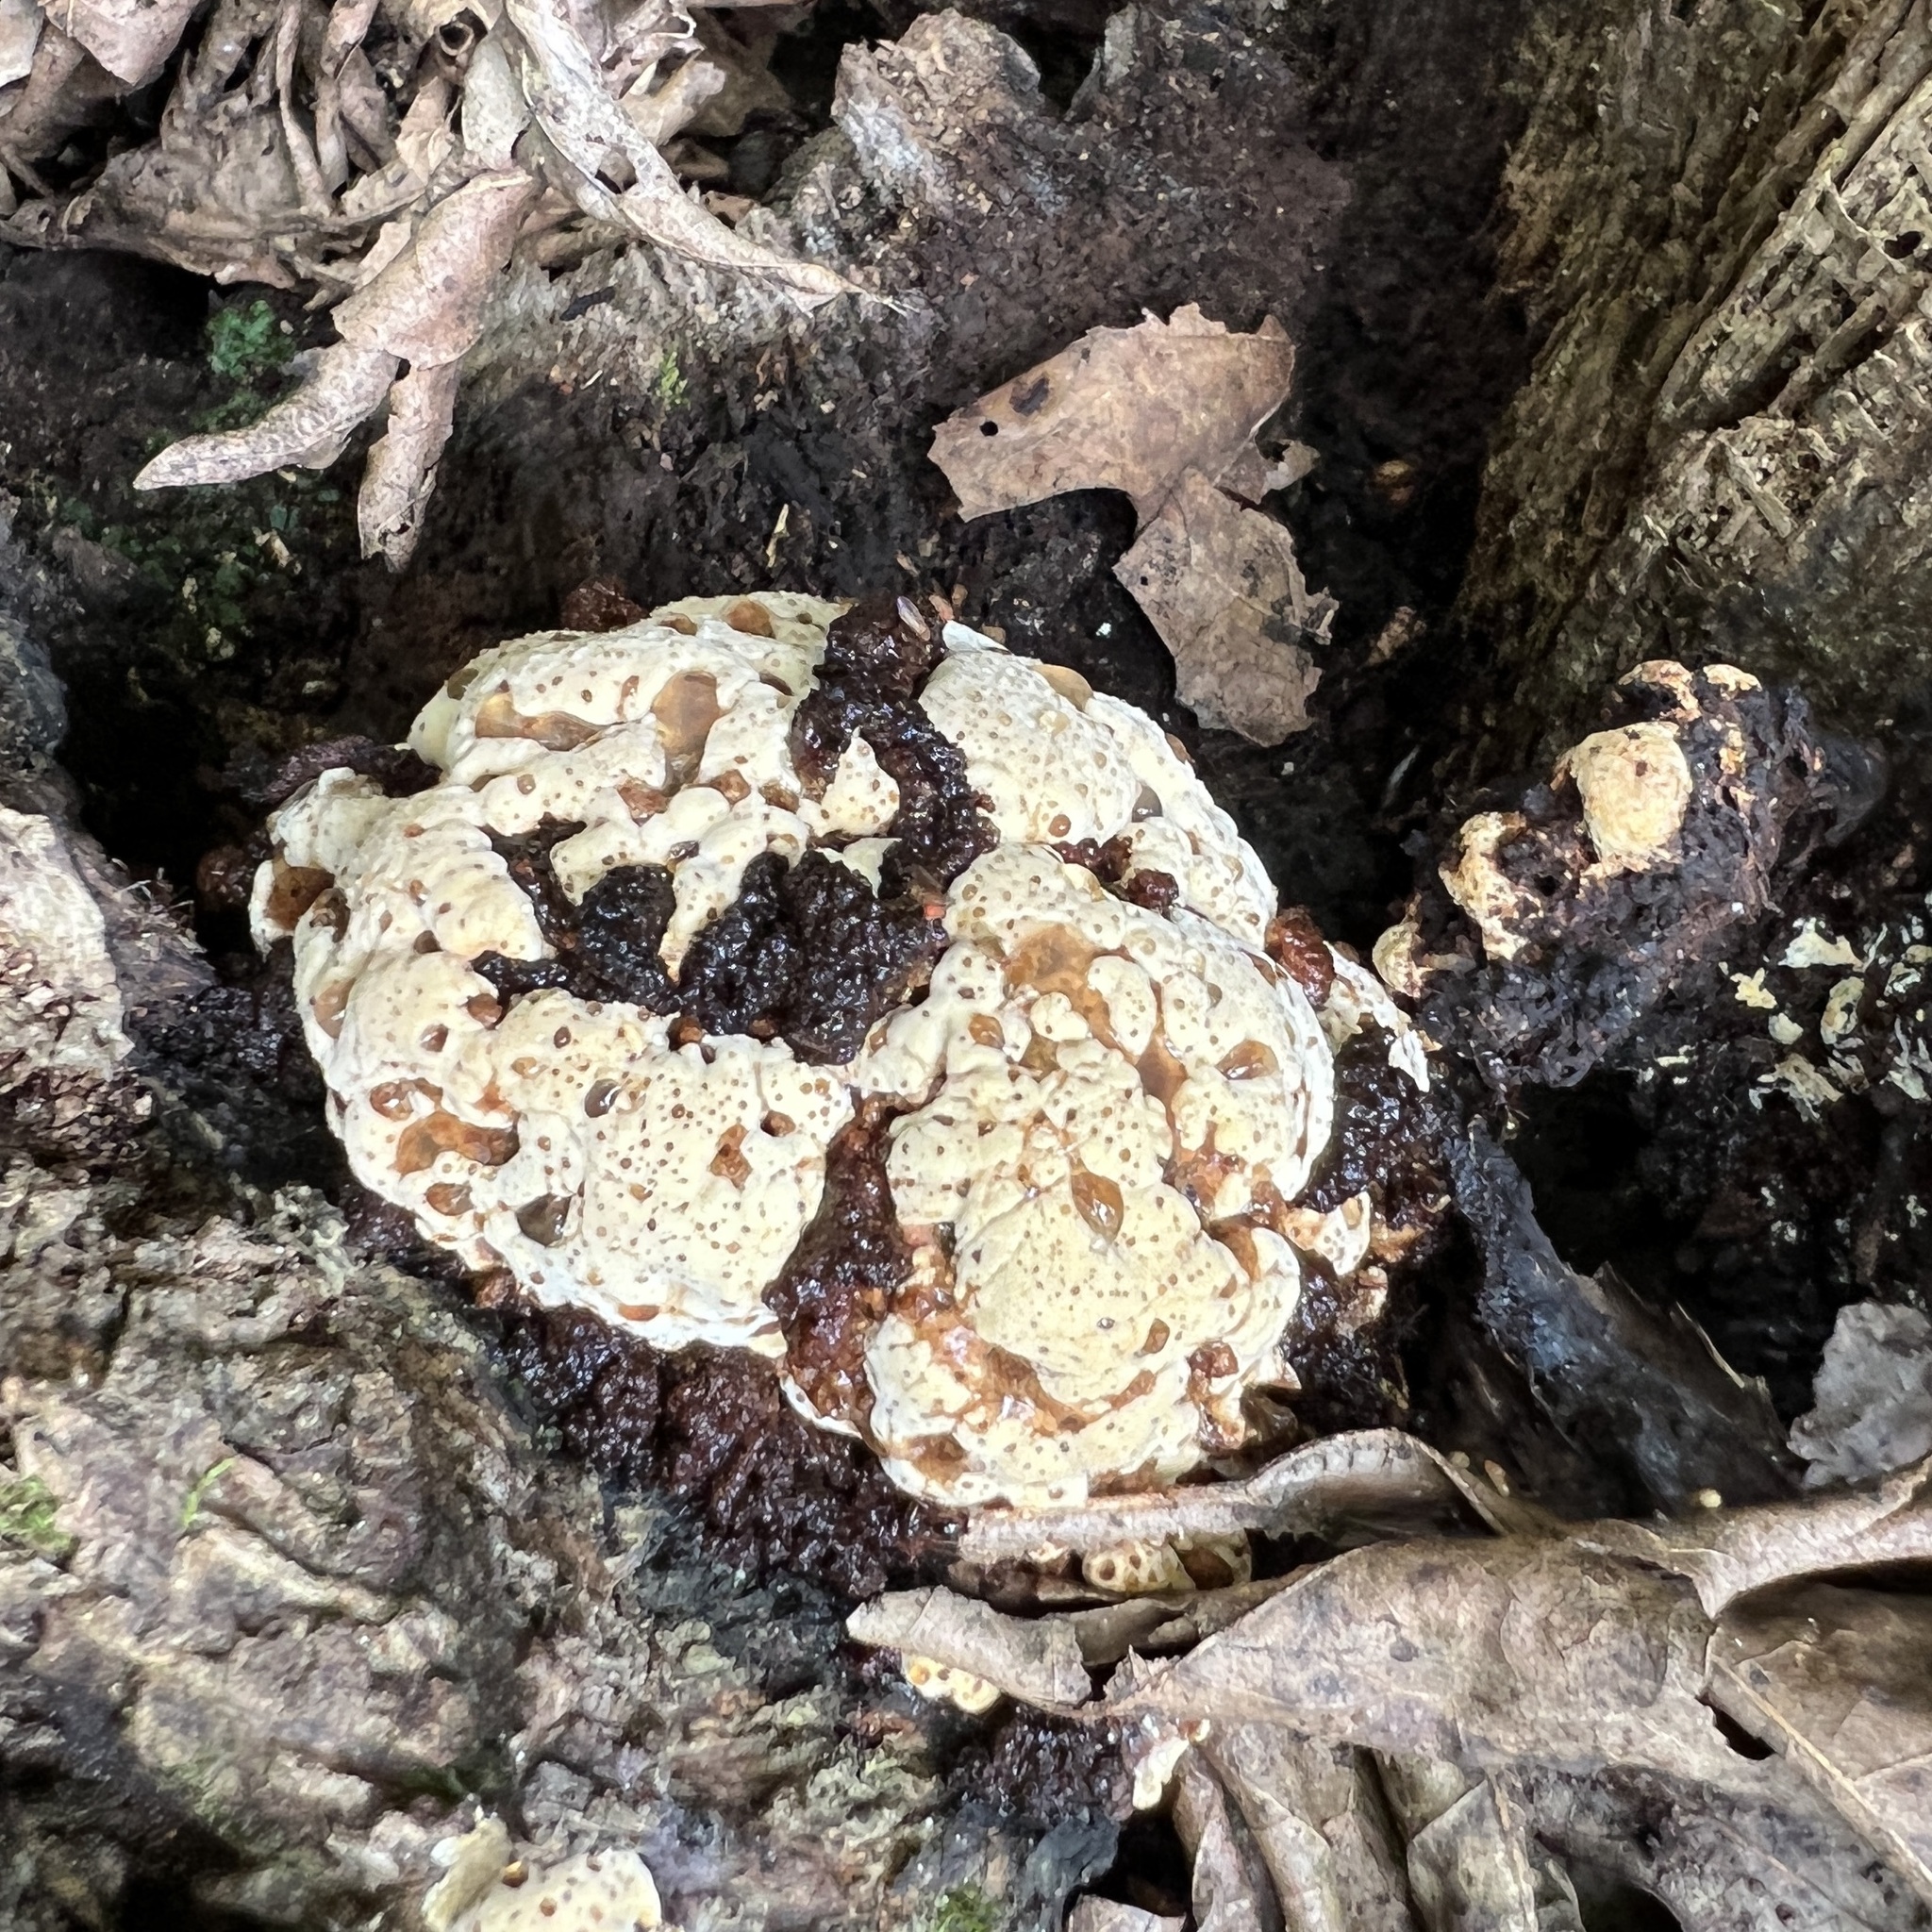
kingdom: Fungi
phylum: Basidiomycota
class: Agaricomycetes
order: Hymenochaetales
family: Hymenochaetaceae
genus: Pseudoinonotus
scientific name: Pseudoinonotus dryadeus
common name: Oak bracket
